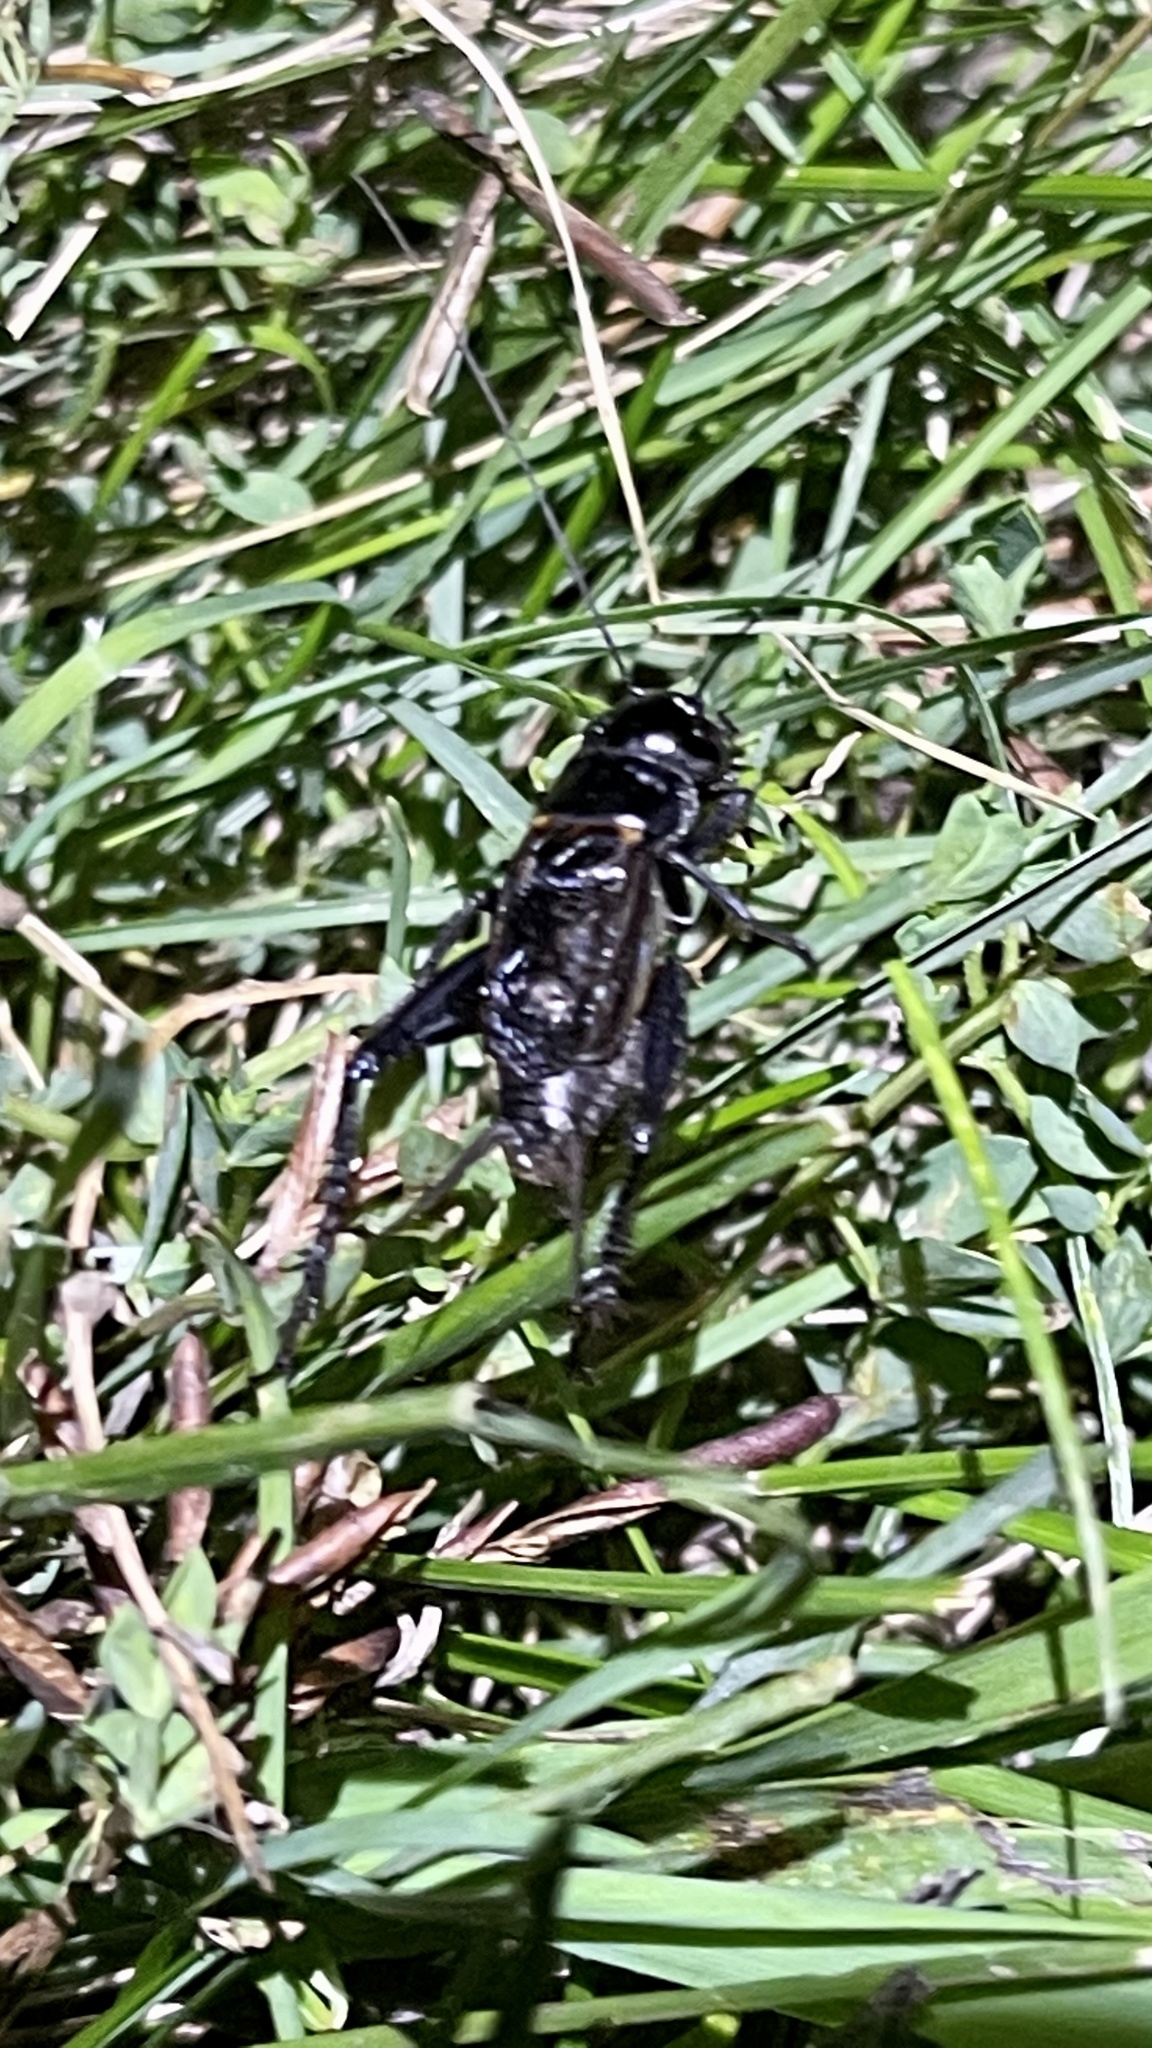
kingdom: Animalia
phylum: Arthropoda
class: Insecta
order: Orthoptera
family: Gryllidae
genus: Gryllus
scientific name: Gryllus pennsylvanicus
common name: Fall field cricket
